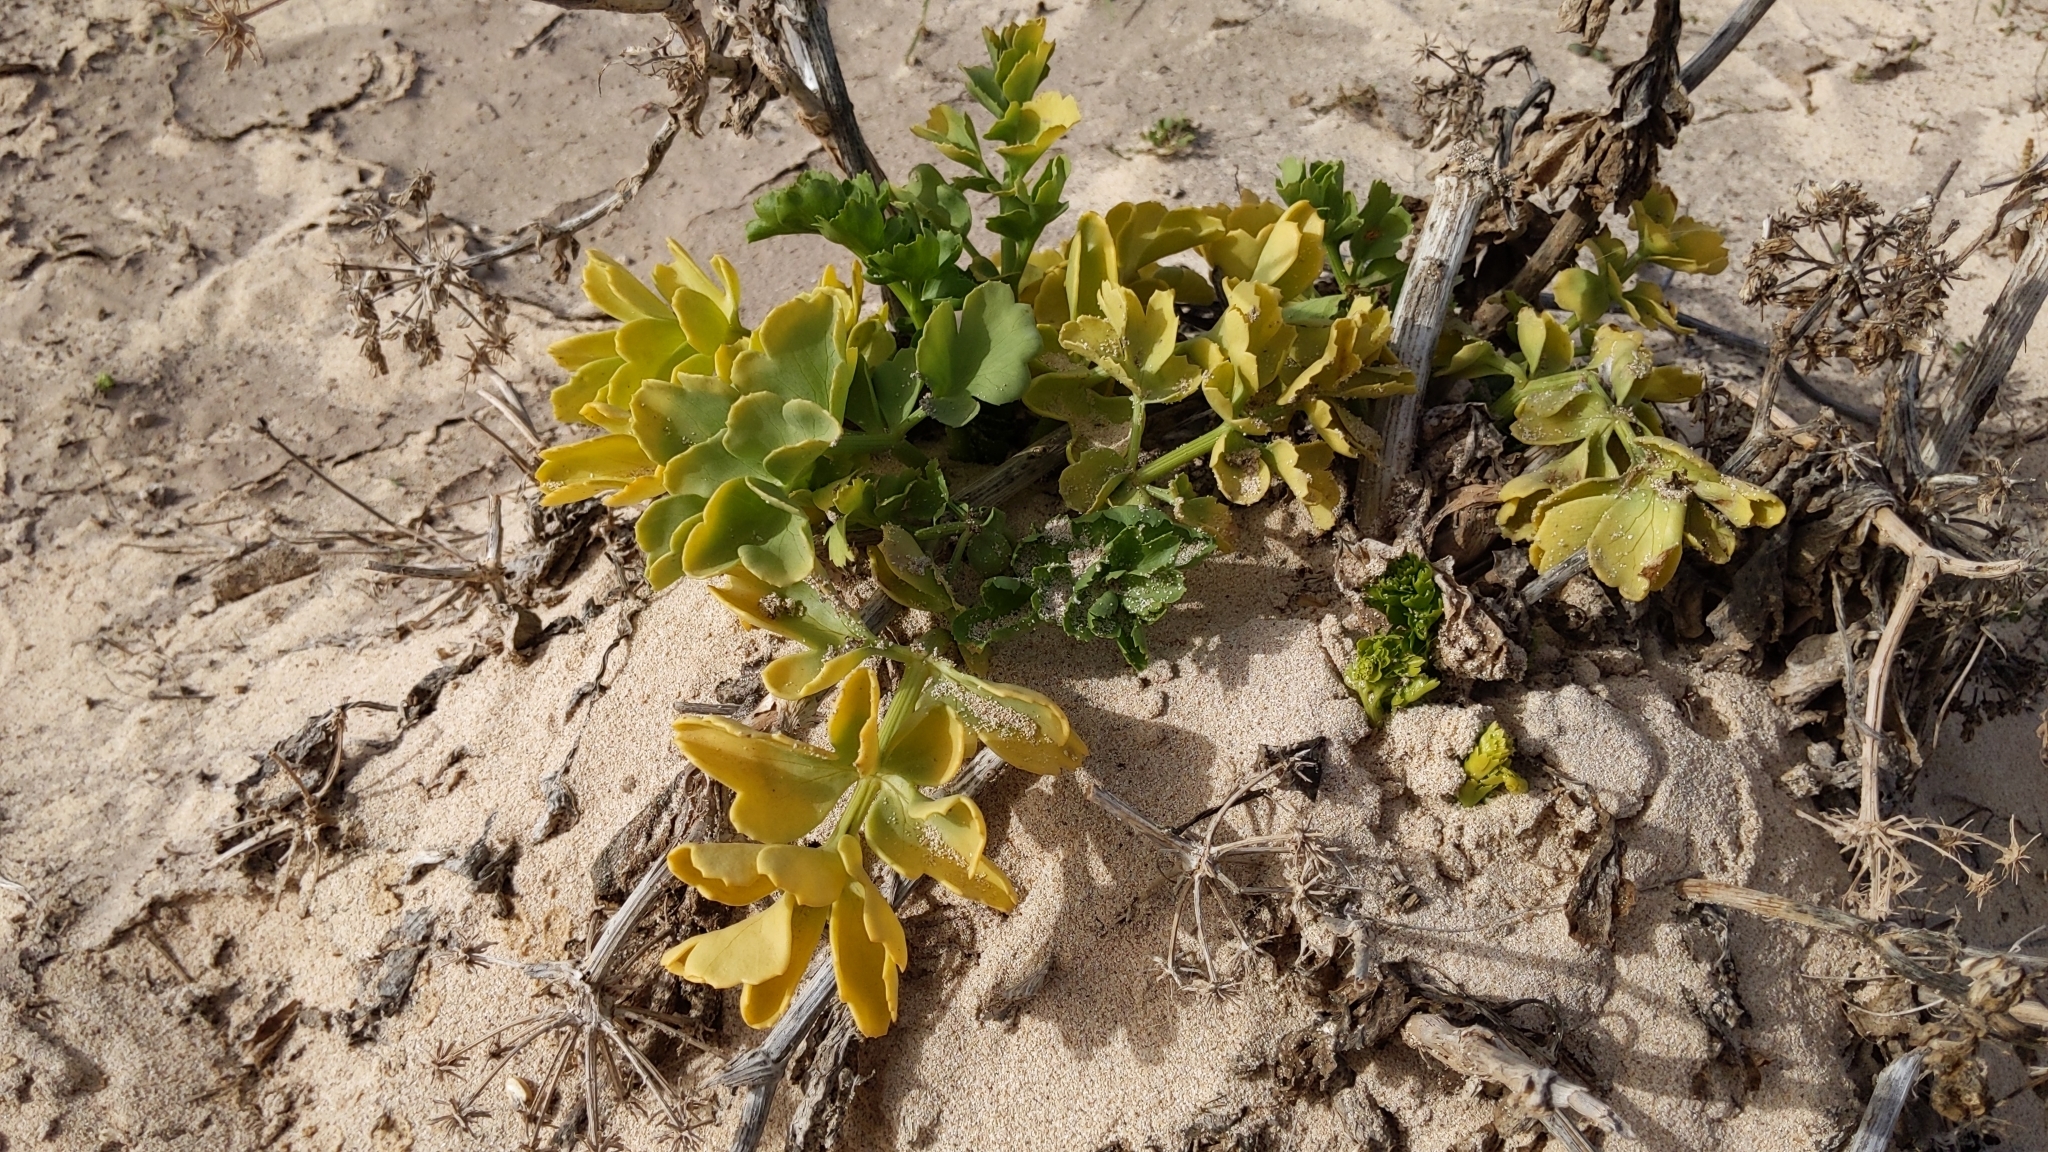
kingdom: Plantae
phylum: Tracheophyta
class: Magnoliopsida
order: Apiales
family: Apiaceae
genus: Astydamia
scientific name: Astydamia latifolia
